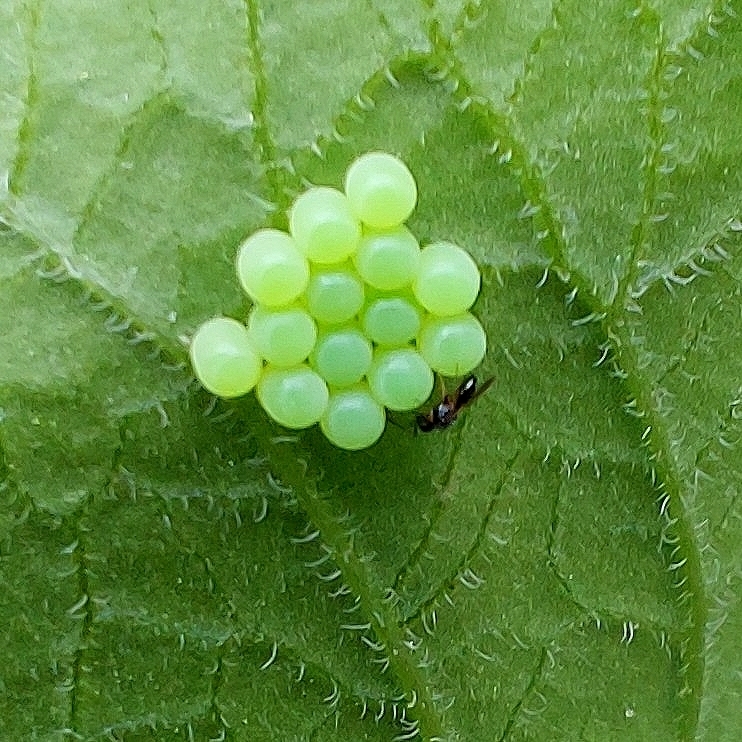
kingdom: Animalia
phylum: Arthropoda
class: Insecta
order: Hemiptera
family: Pentatomidae
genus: Palomena
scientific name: Palomena prasina
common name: Green shieldbug
